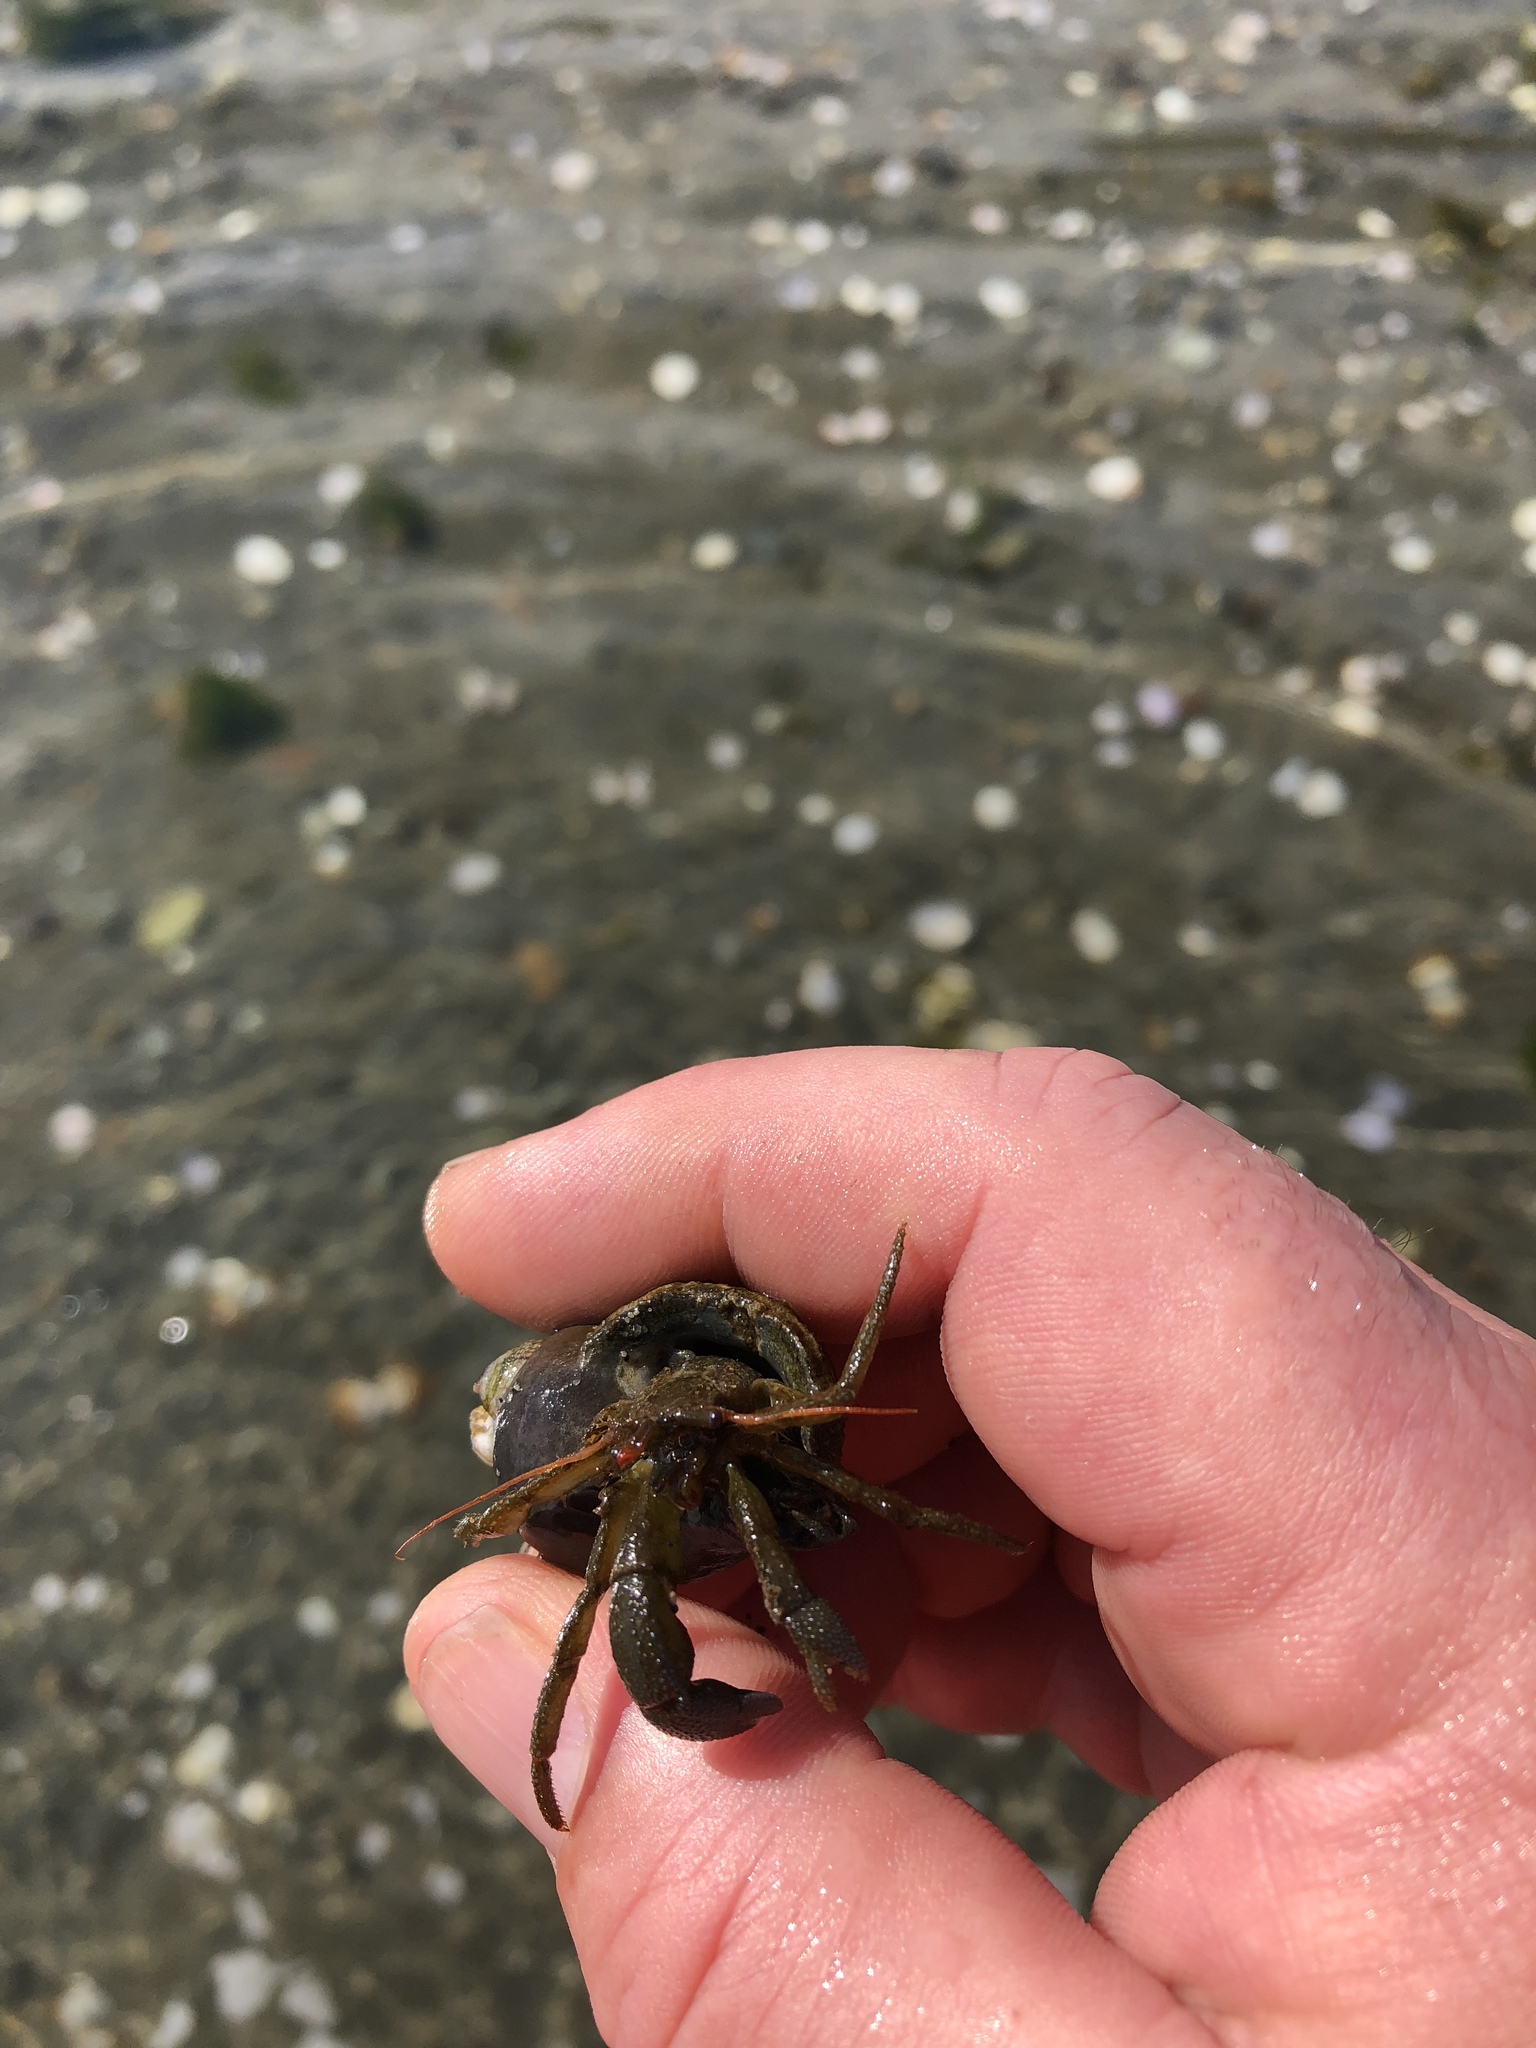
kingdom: Animalia
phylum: Arthropoda
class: Malacostraca
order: Decapoda
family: Paguridae
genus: Pagurus
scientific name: Pagurus hirsutiusculus
